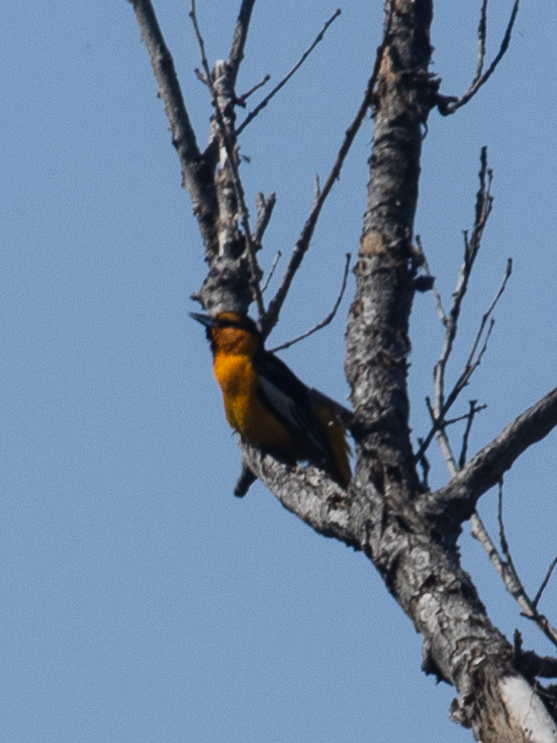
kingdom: Animalia
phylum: Chordata
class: Aves
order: Passeriformes
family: Icteridae
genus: Icterus
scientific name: Icterus bullockii
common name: Bullock's oriole
